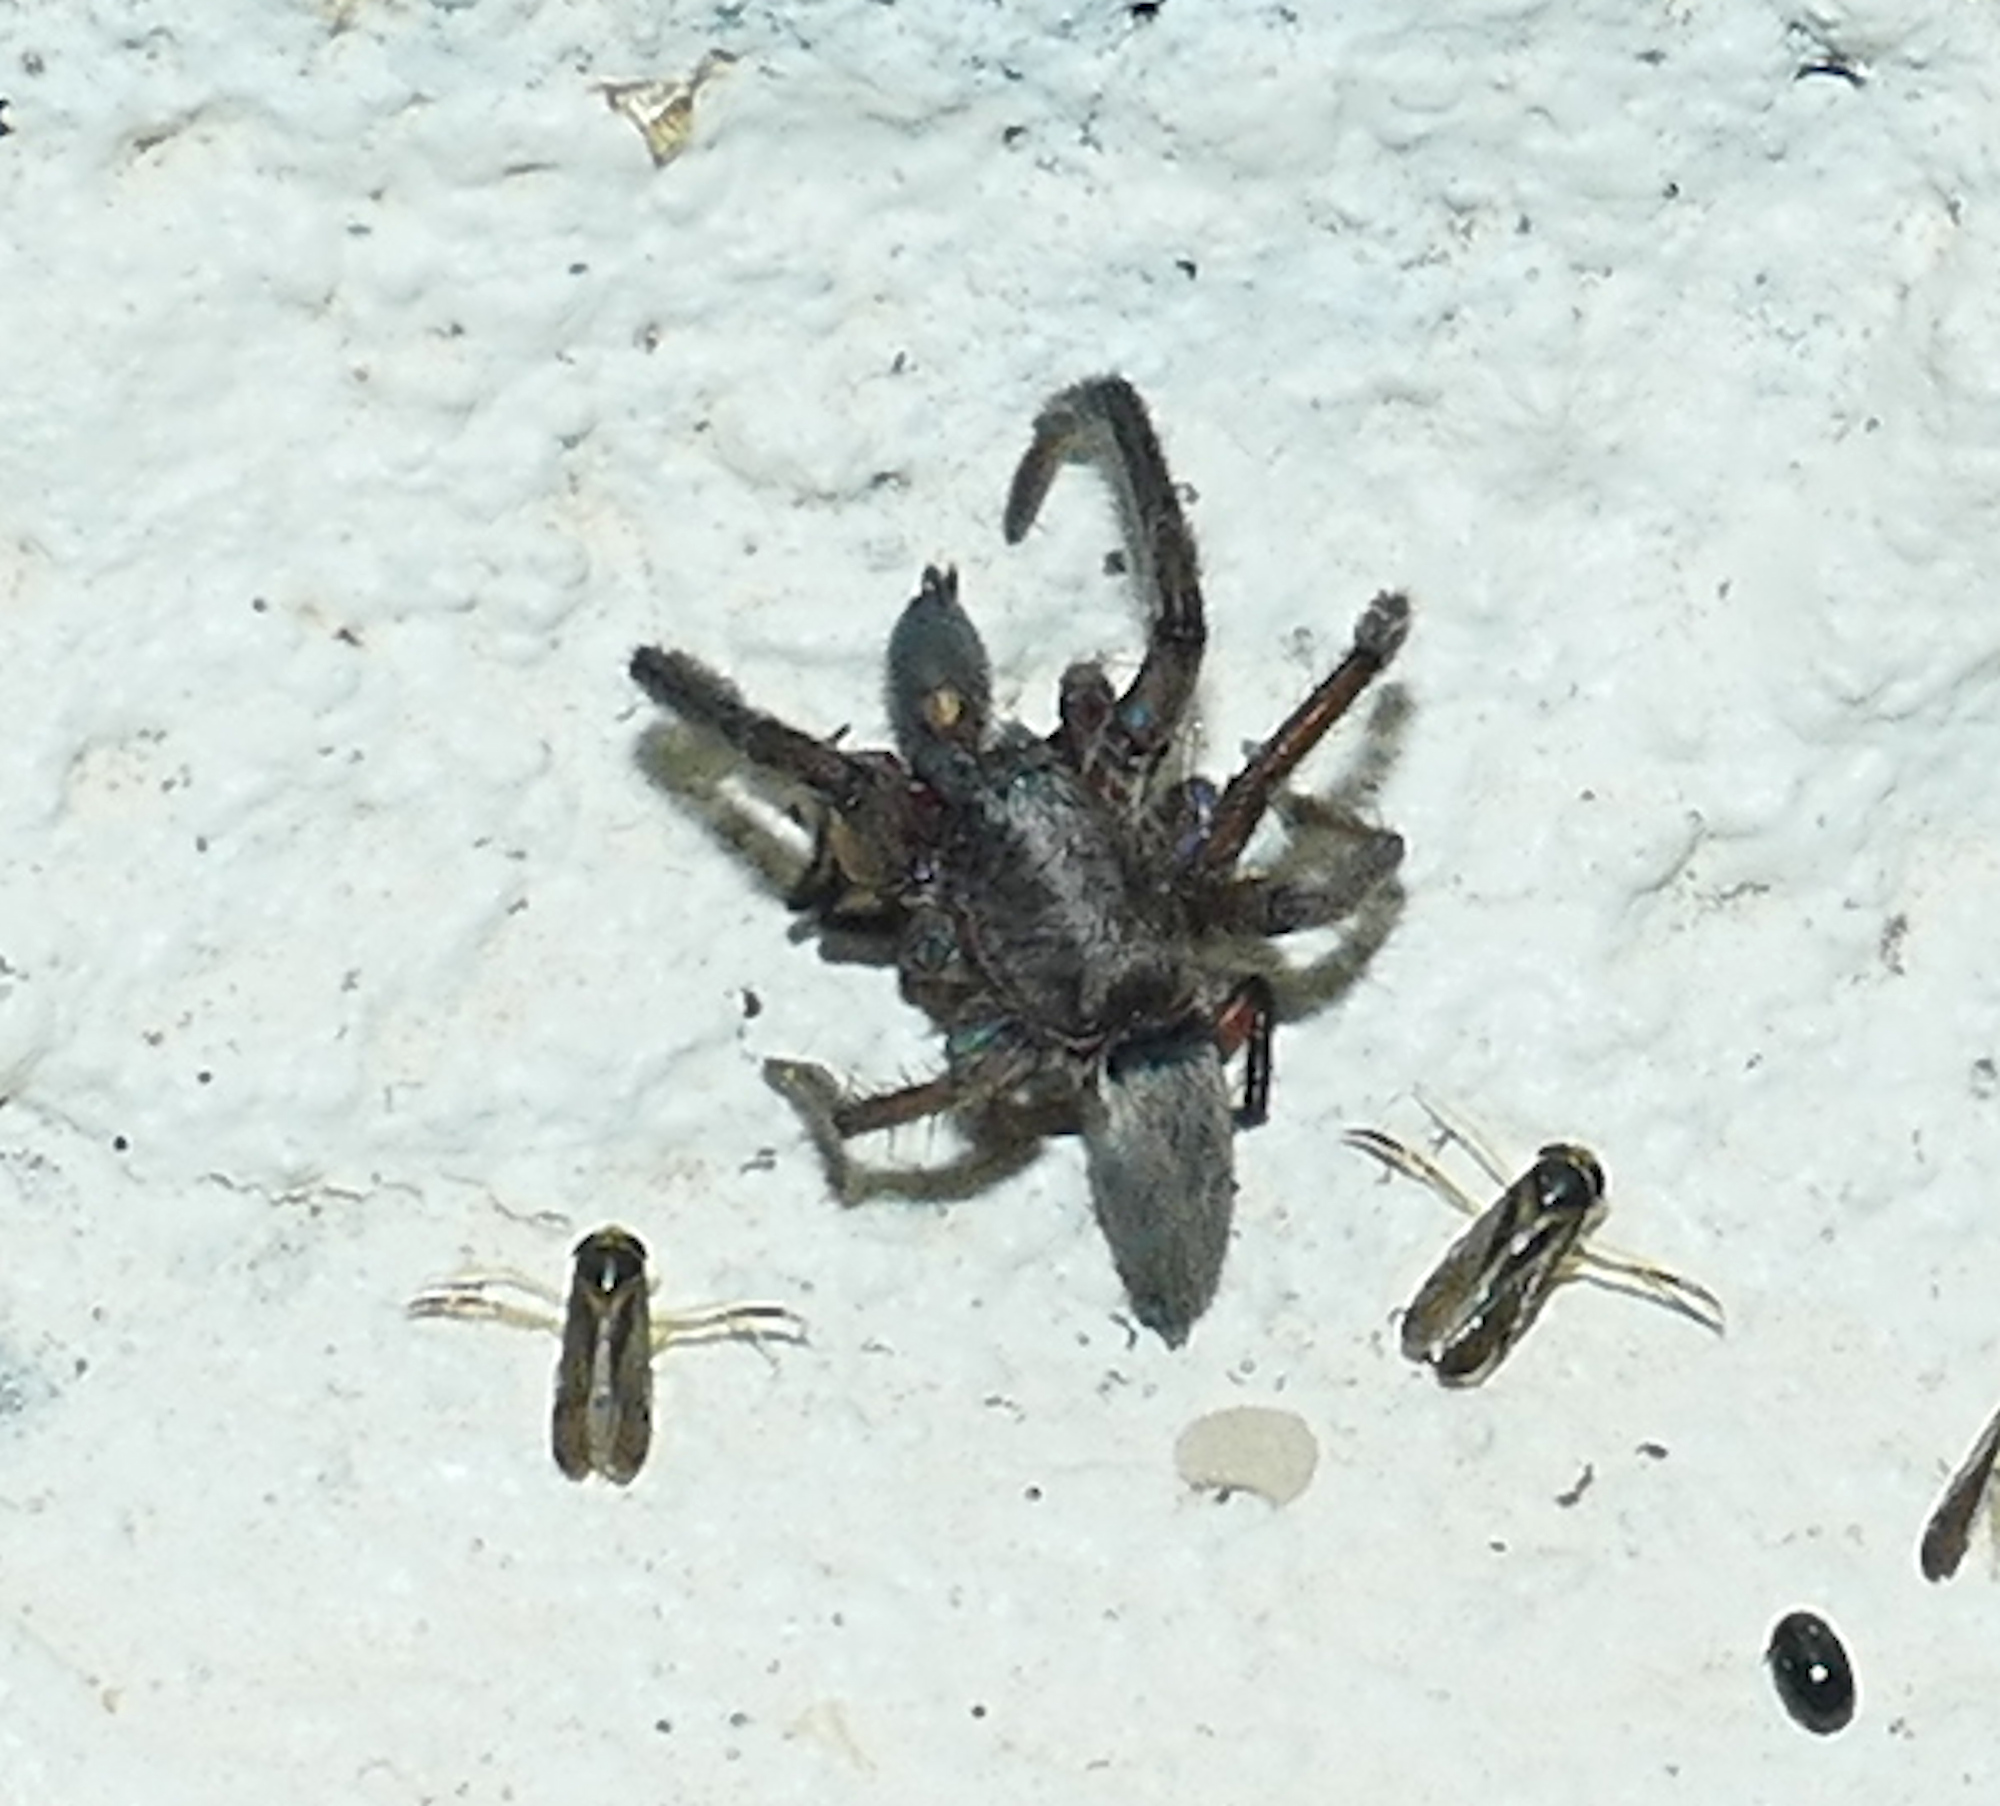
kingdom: Animalia
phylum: Arthropoda
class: Arachnida
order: Araneae
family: Miturgidae
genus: Teminius
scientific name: Teminius affinis
